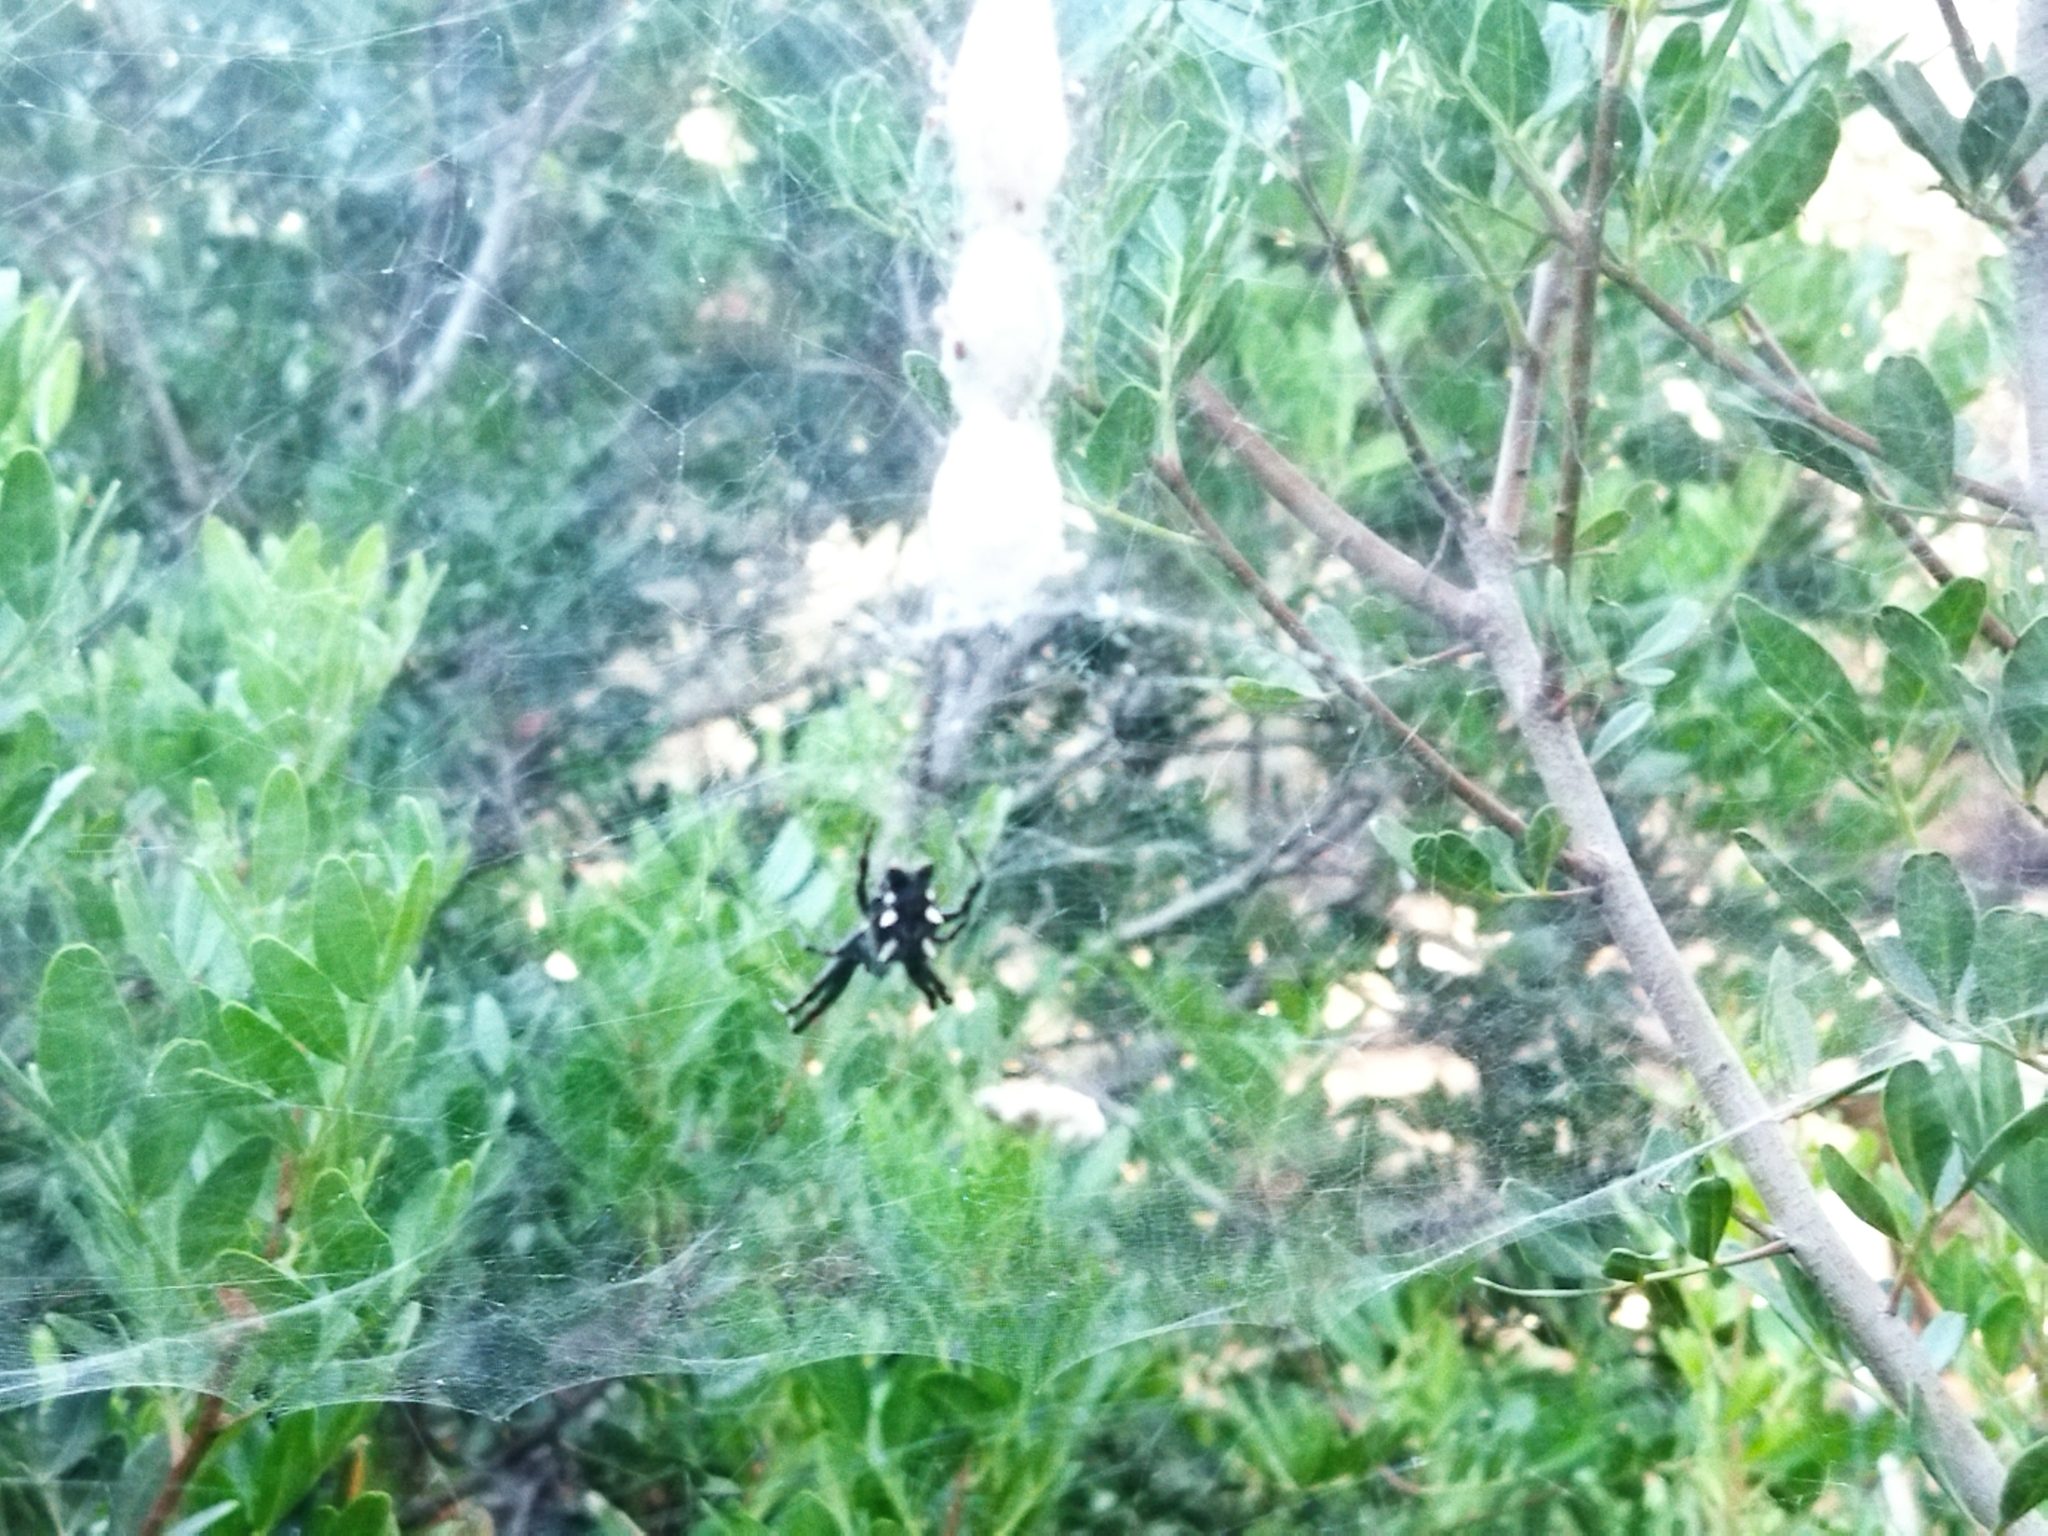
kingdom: Animalia
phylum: Arthropoda
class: Arachnida
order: Araneae
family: Araneidae
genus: Cyrtophora
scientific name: Cyrtophora citricola
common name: Orb weavers
